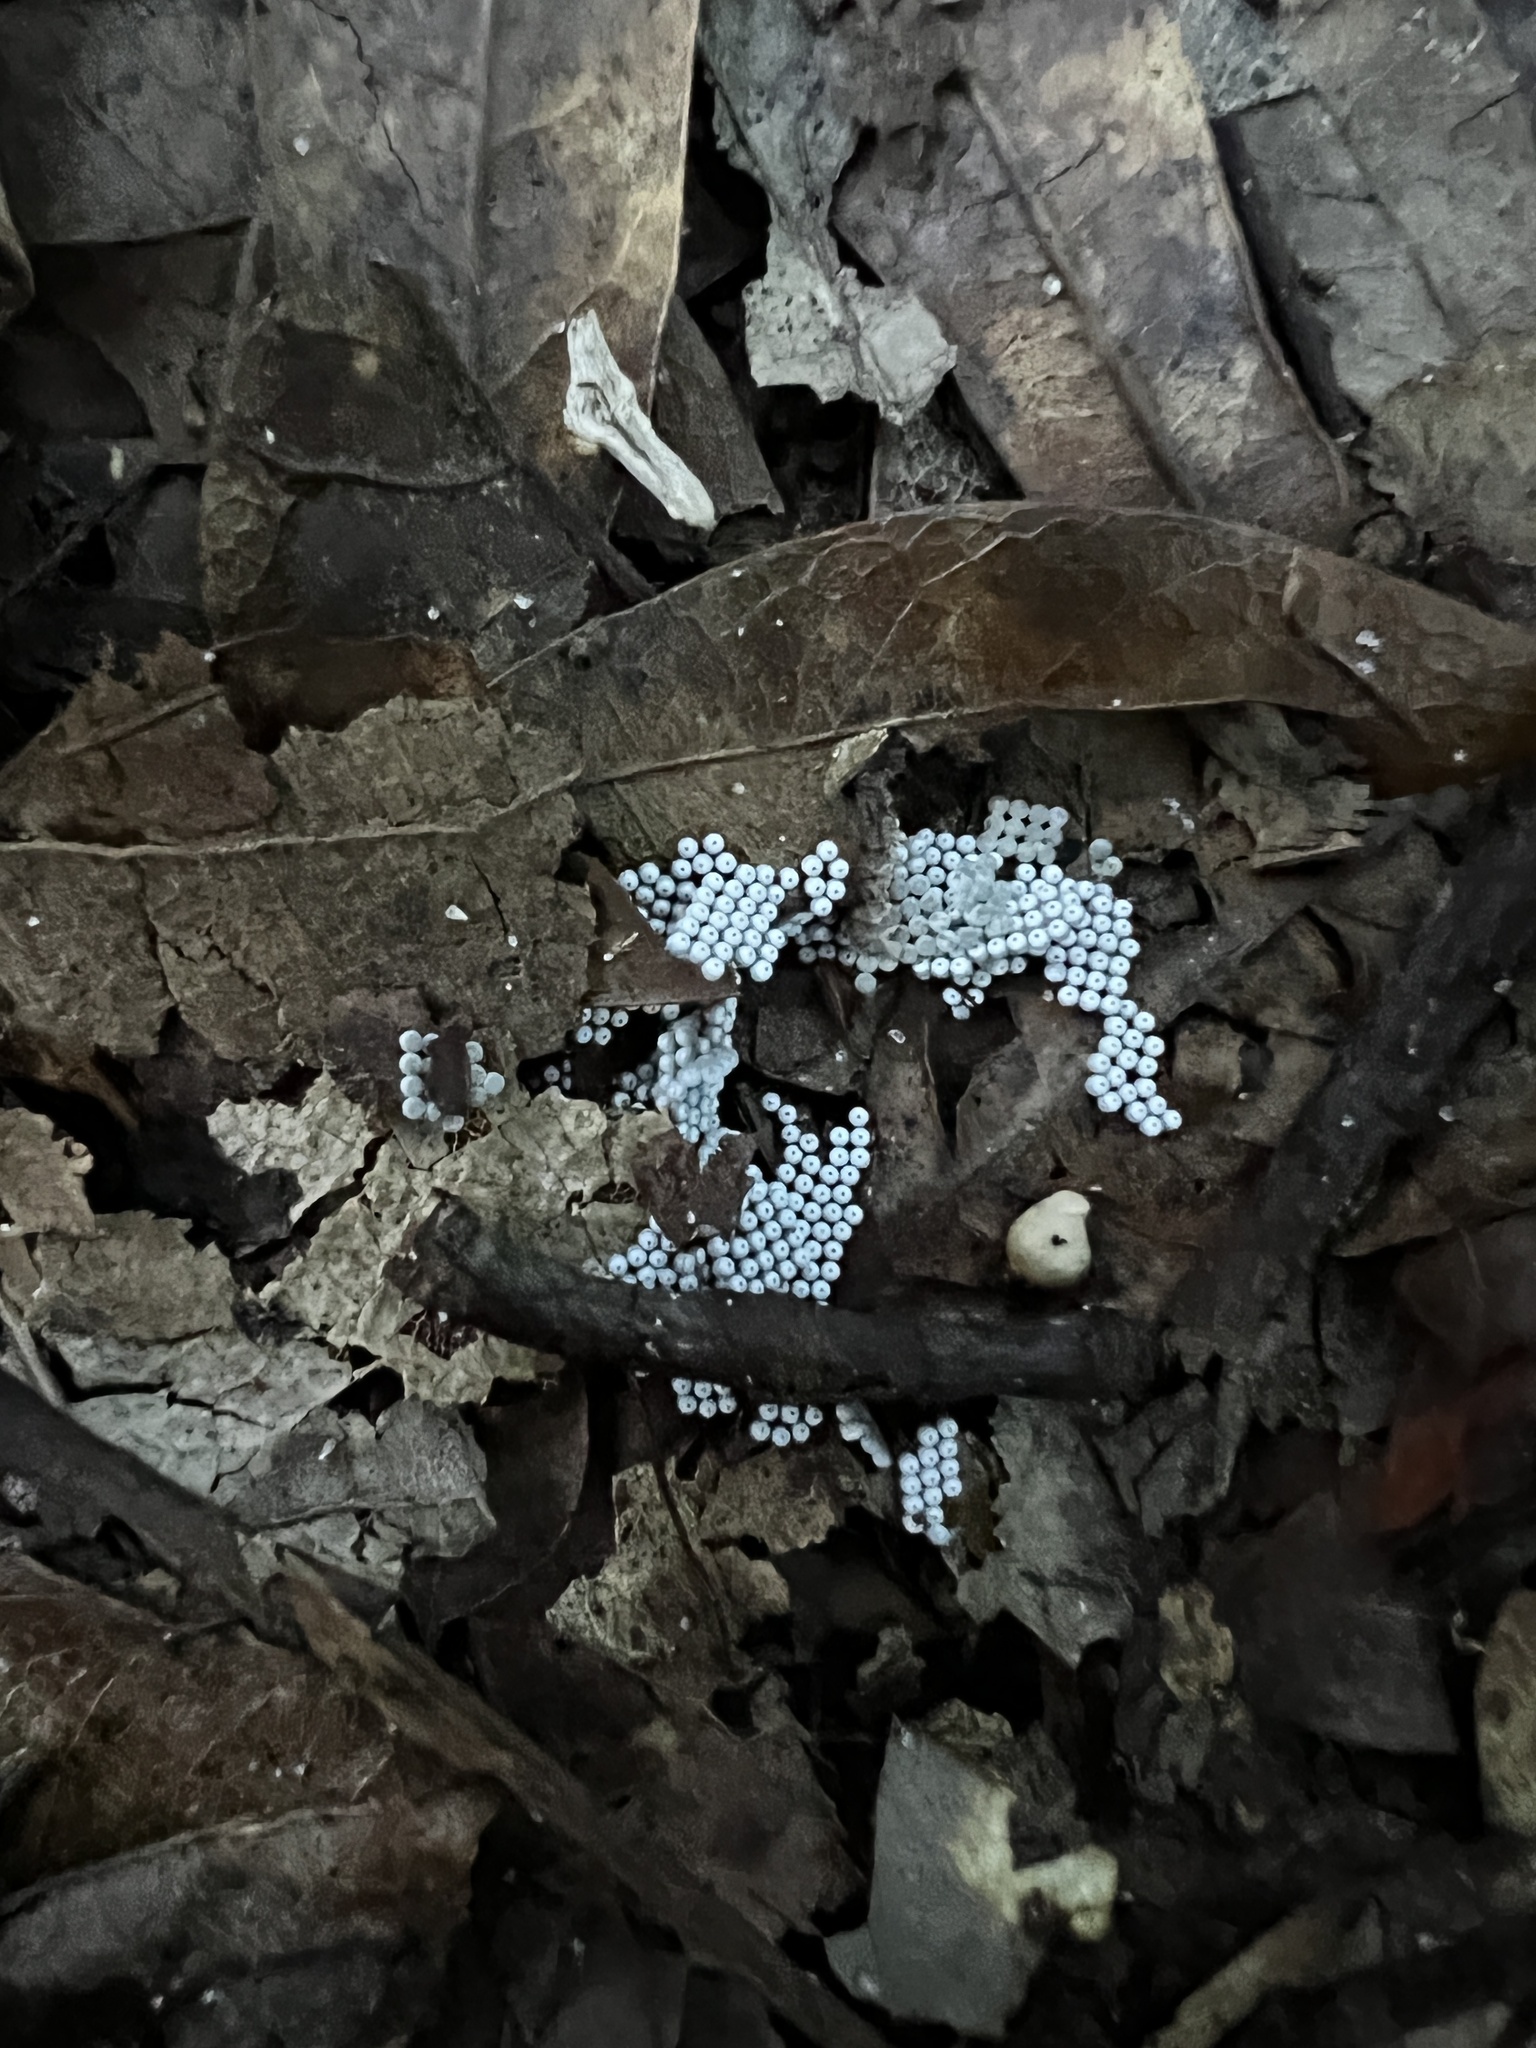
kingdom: Animalia
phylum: Arthropoda
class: Insecta
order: Hemiptera
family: Reduviidae
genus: Arilus
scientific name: Arilus cristatus
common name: North american wheel bug
